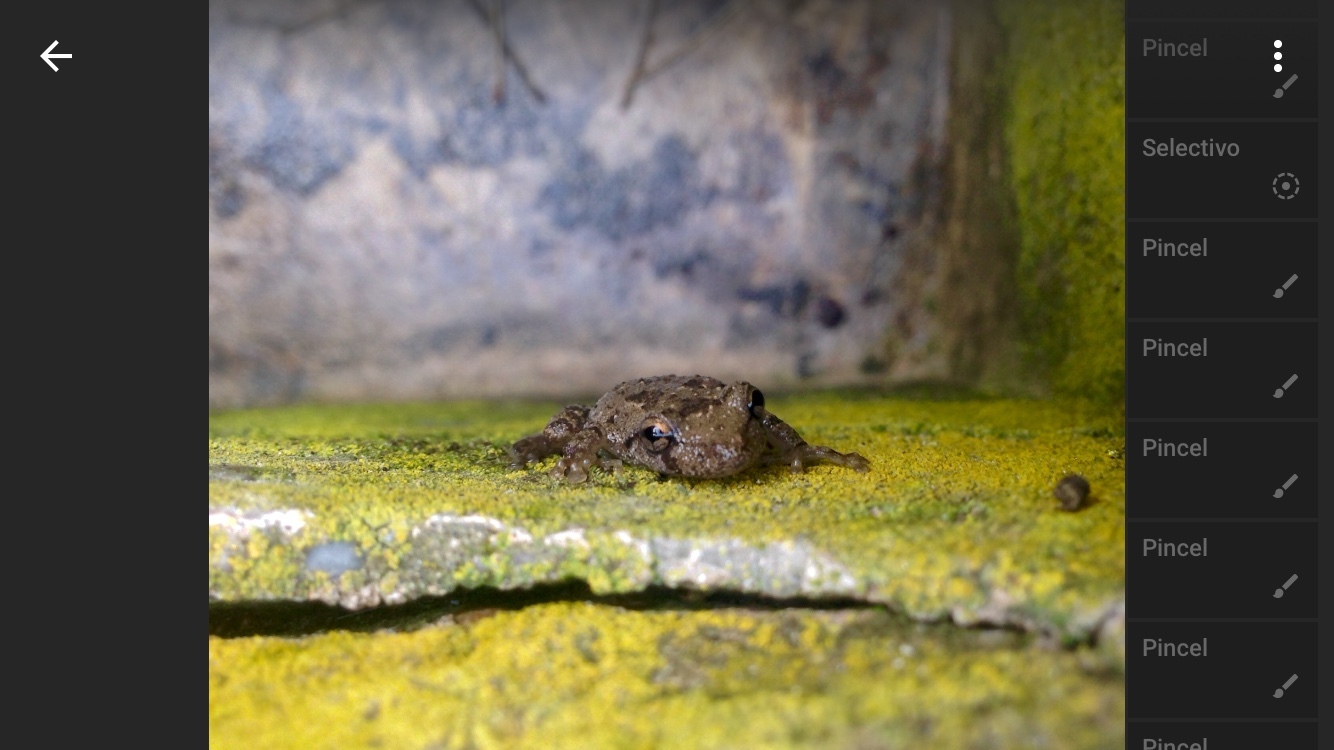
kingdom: Animalia
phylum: Chordata
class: Amphibia
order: Anura
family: Hylidae
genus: Scinax
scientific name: Scinax granulatus
